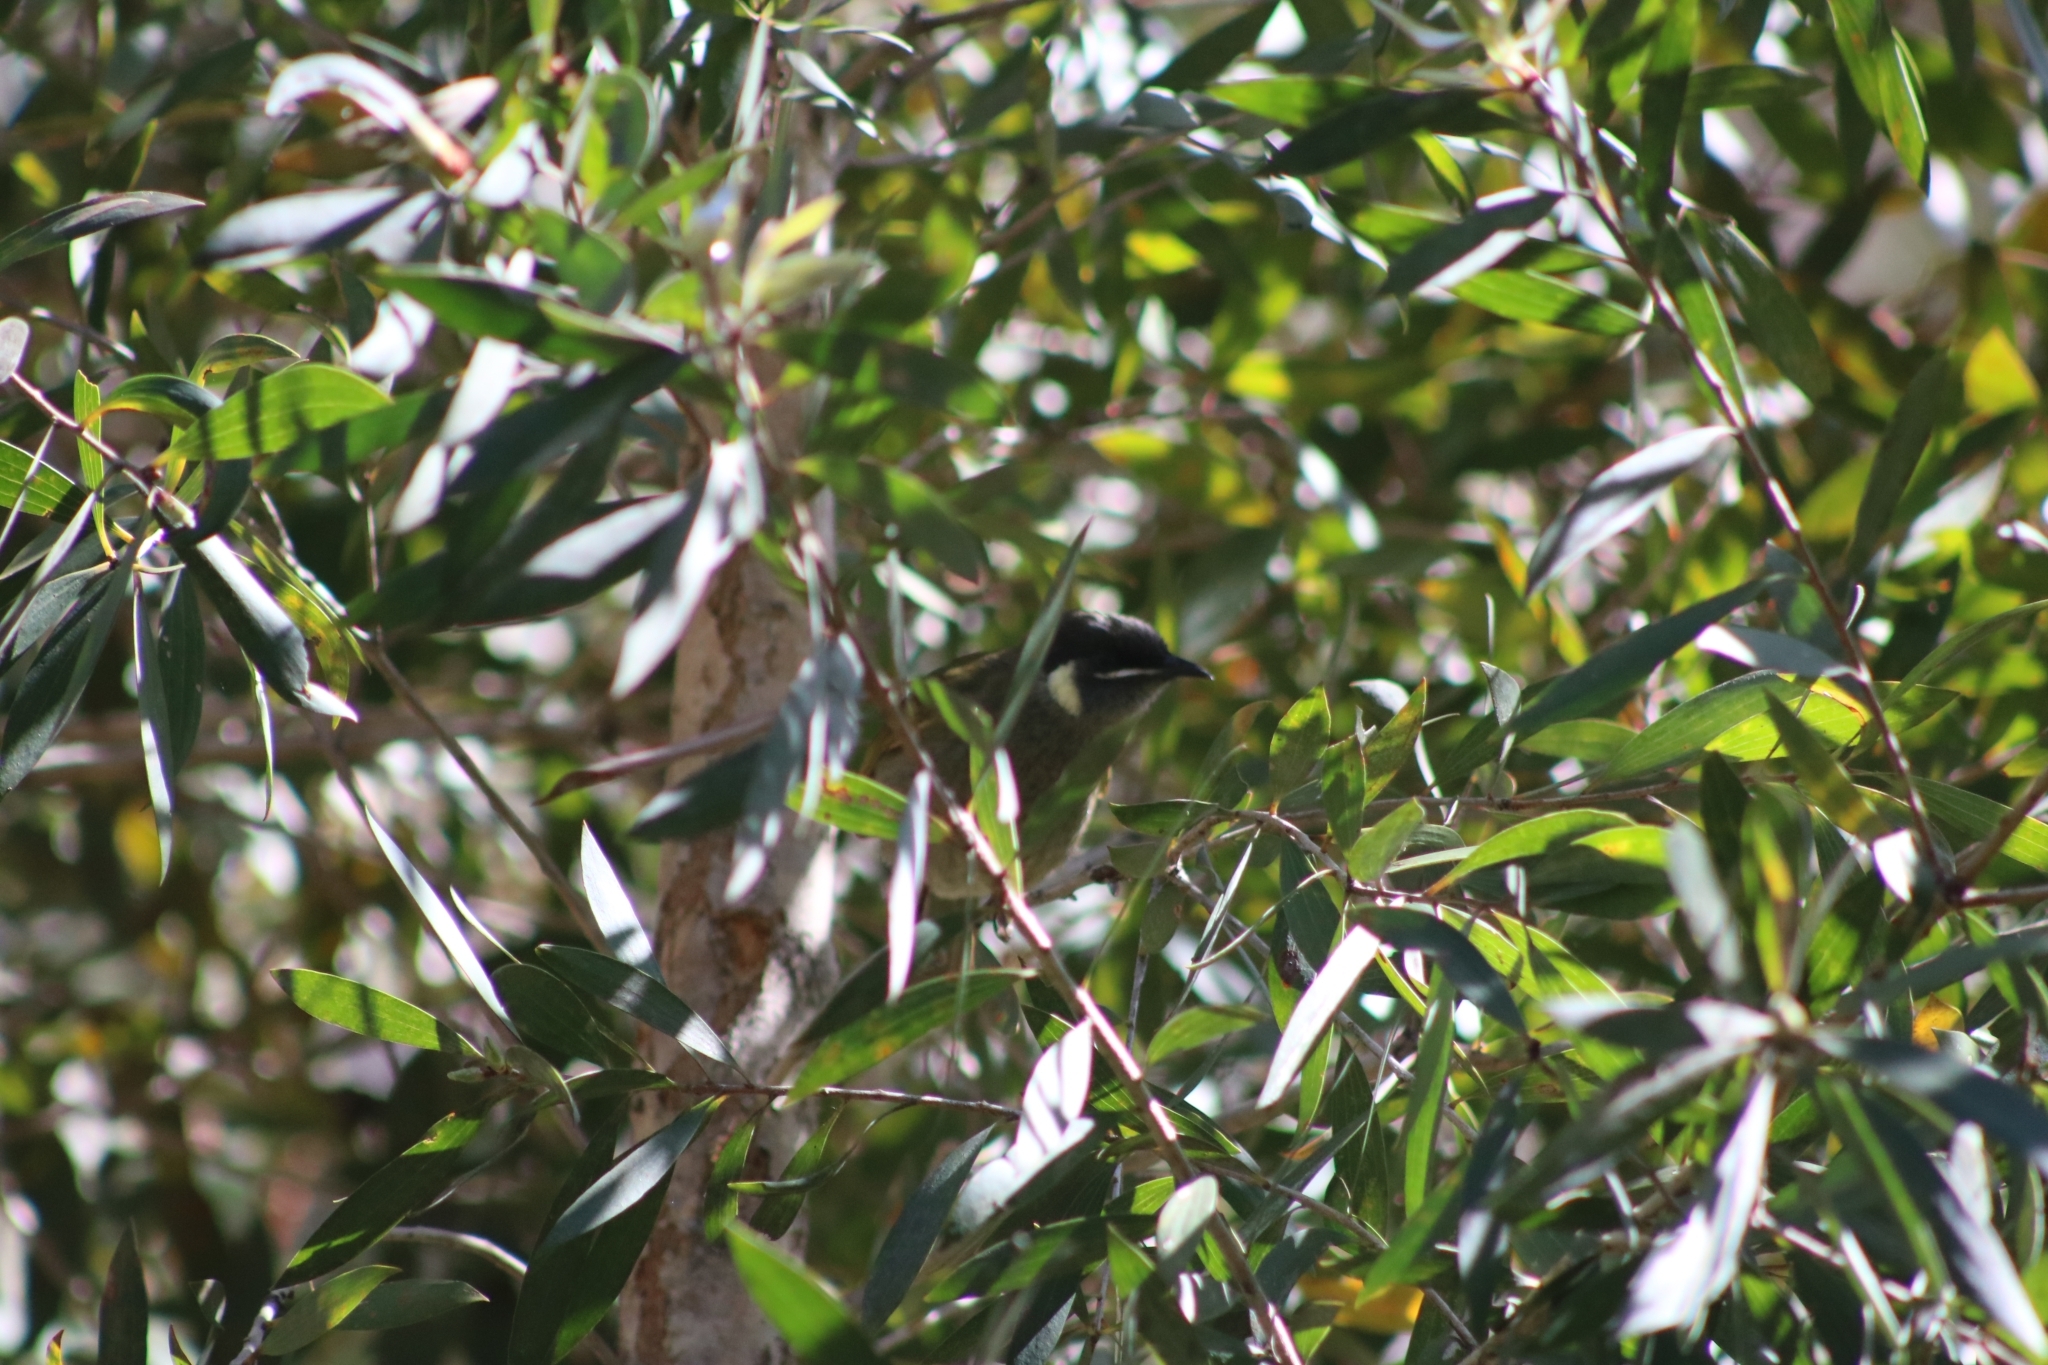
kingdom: Animalia
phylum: Chordata
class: Aves
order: Passeriformes
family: Meliphagidae
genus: Meliphaga
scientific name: Meliphaga lewinii
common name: Lewin's honeyeater
